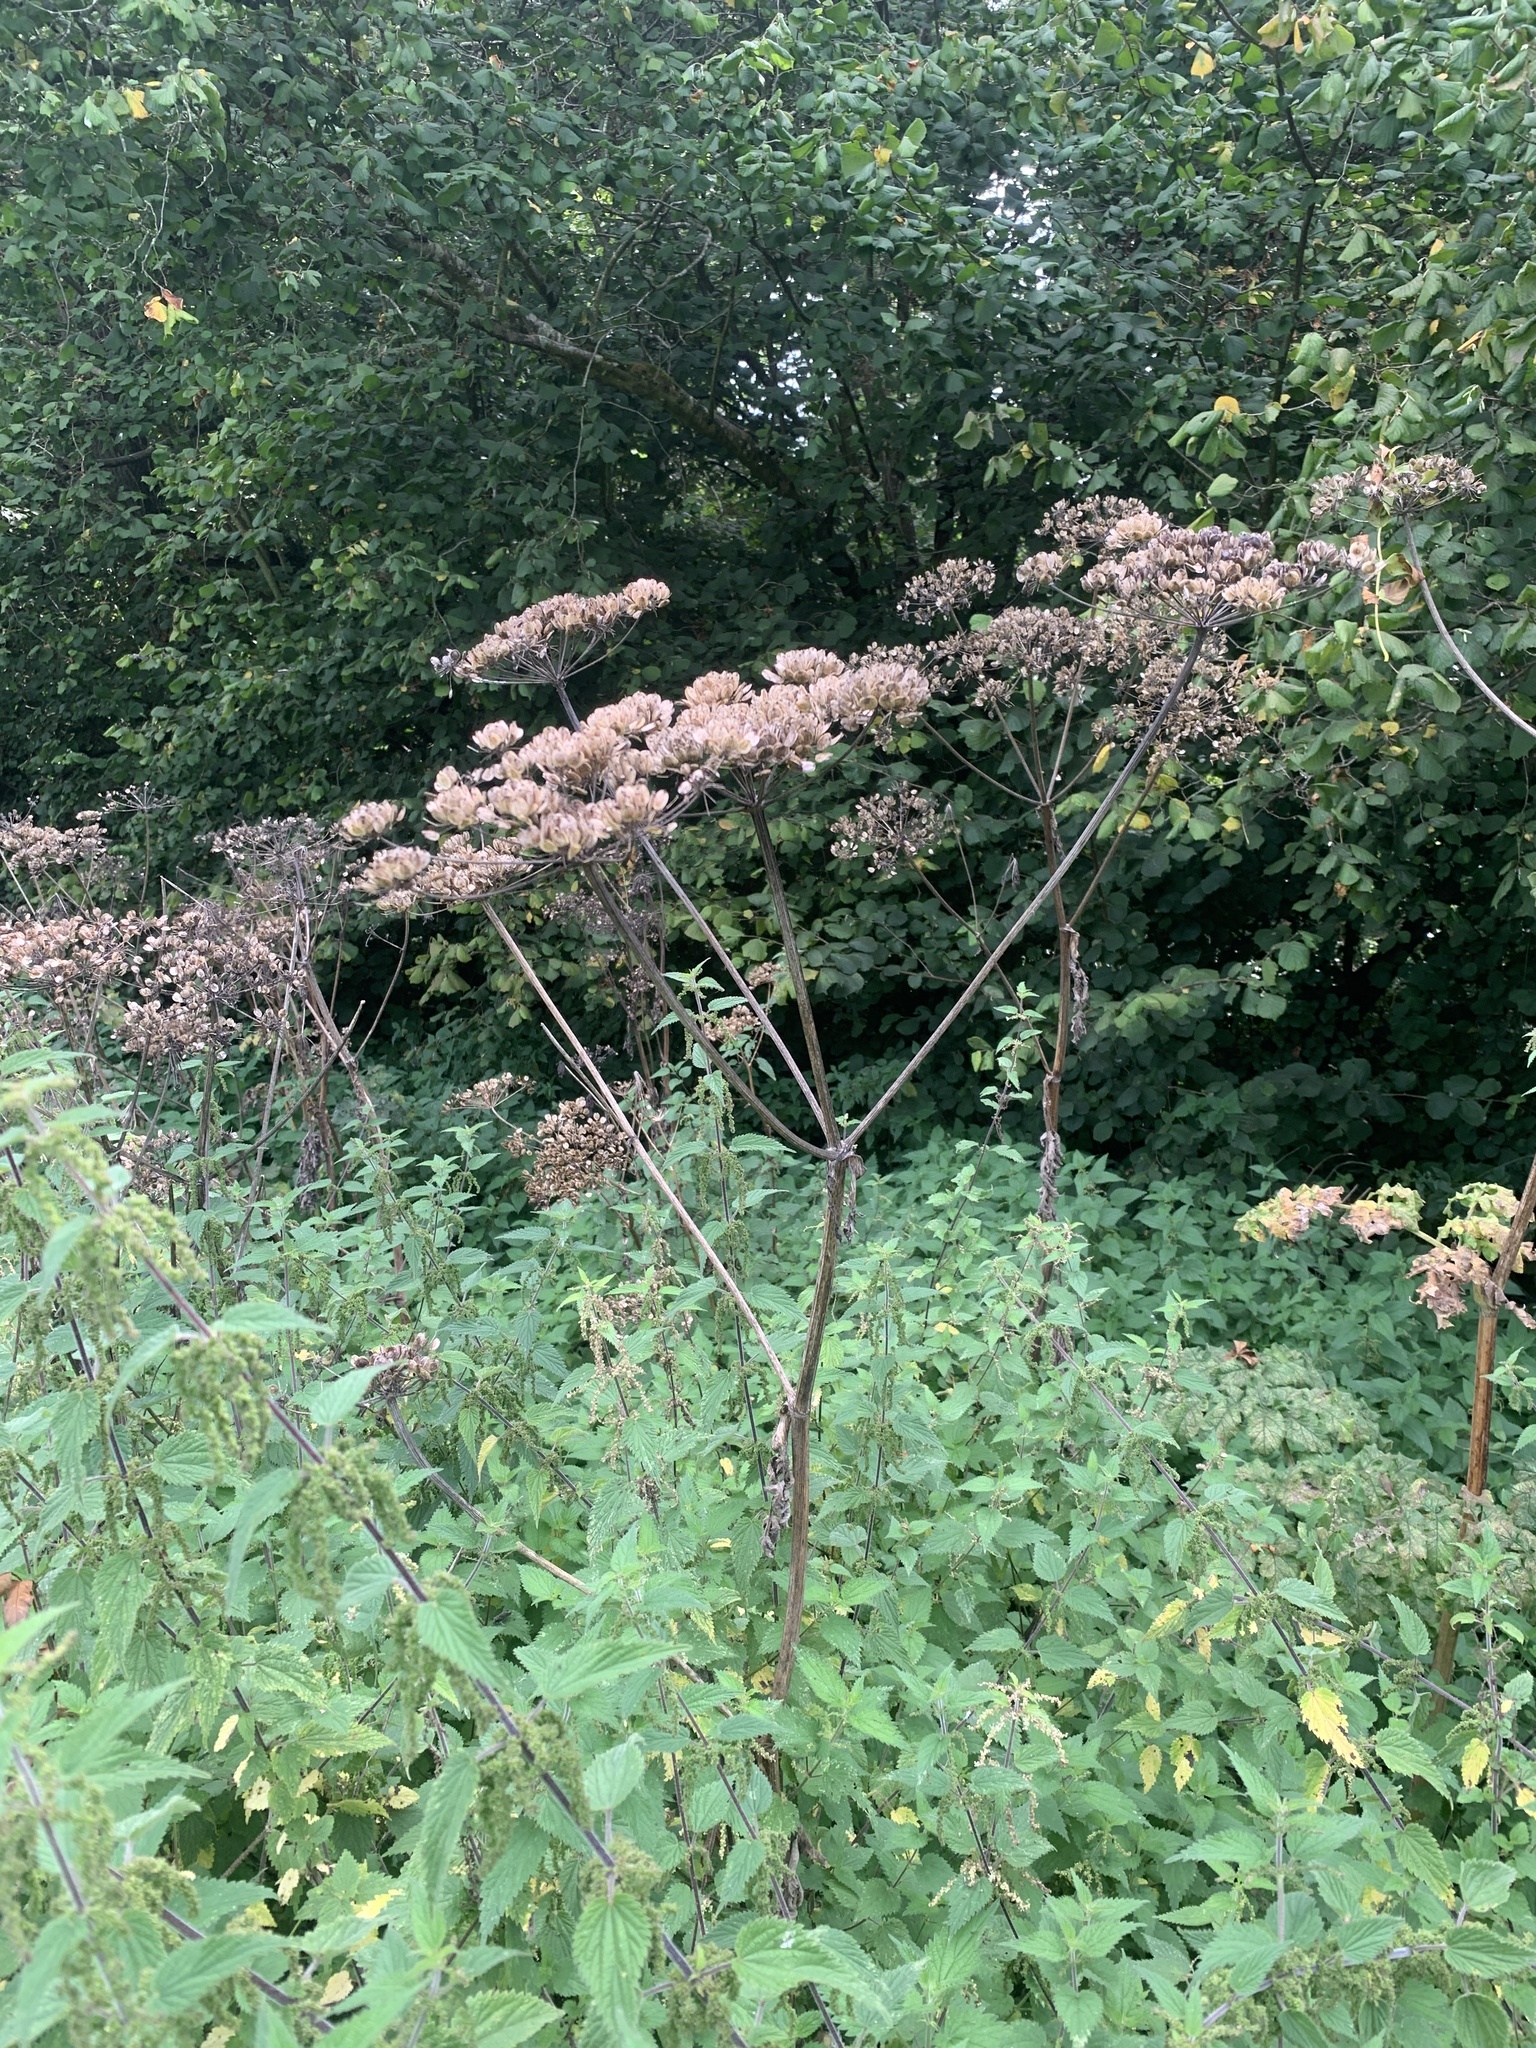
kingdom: Plantae
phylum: Tracheophyta
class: Magnoliopsida
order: Apiales
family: Apiaceae
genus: Heracleum
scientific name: Heracleum sphondylium
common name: Hogweed
